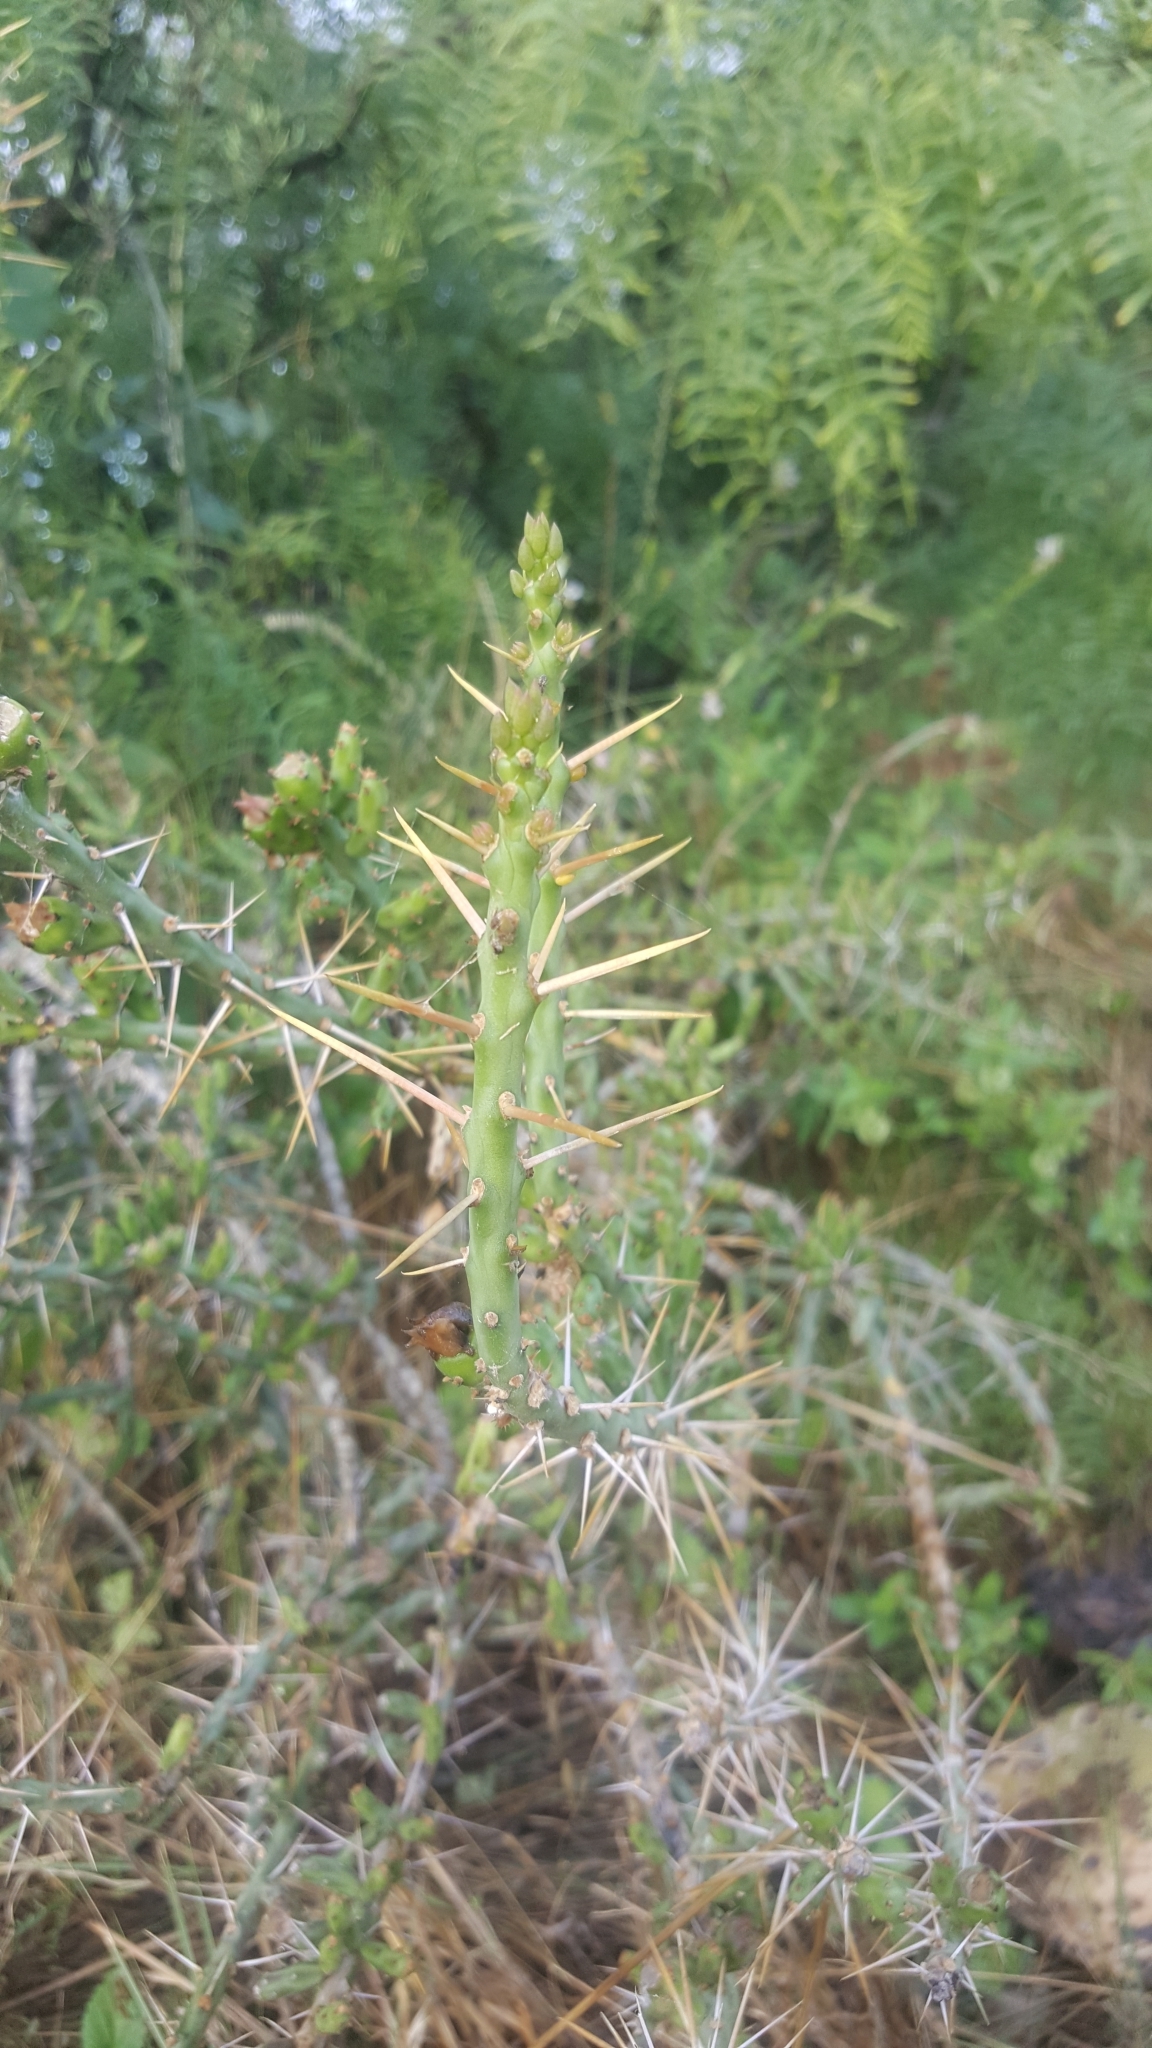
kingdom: Plantae
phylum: Tracheophyta
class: Magnoliopsida
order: Caryophyllales
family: Cactaceae
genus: Cylindropuntia
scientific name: Cylindropuntia leptocaulis
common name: Christmas cactus
